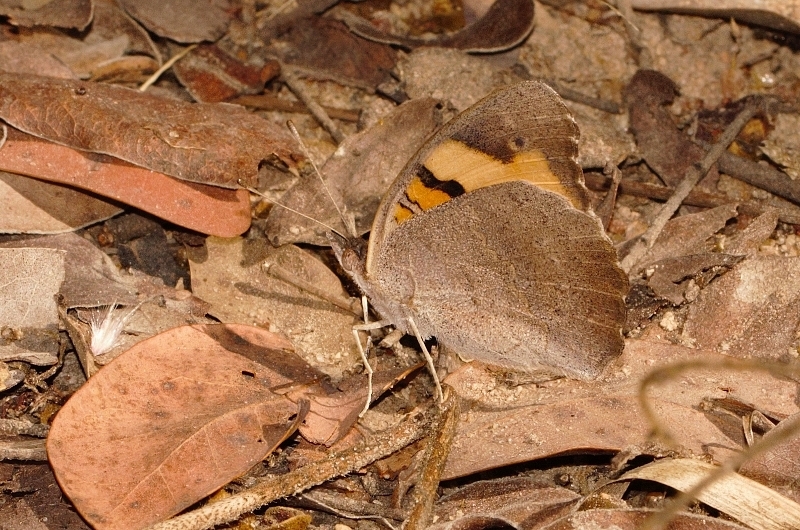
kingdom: Animalia
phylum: Arthropoda
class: Insecta
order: Lepidoptera
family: Nymphalidae
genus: Junonia
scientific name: Junonia hierta
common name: Yellow pansy
